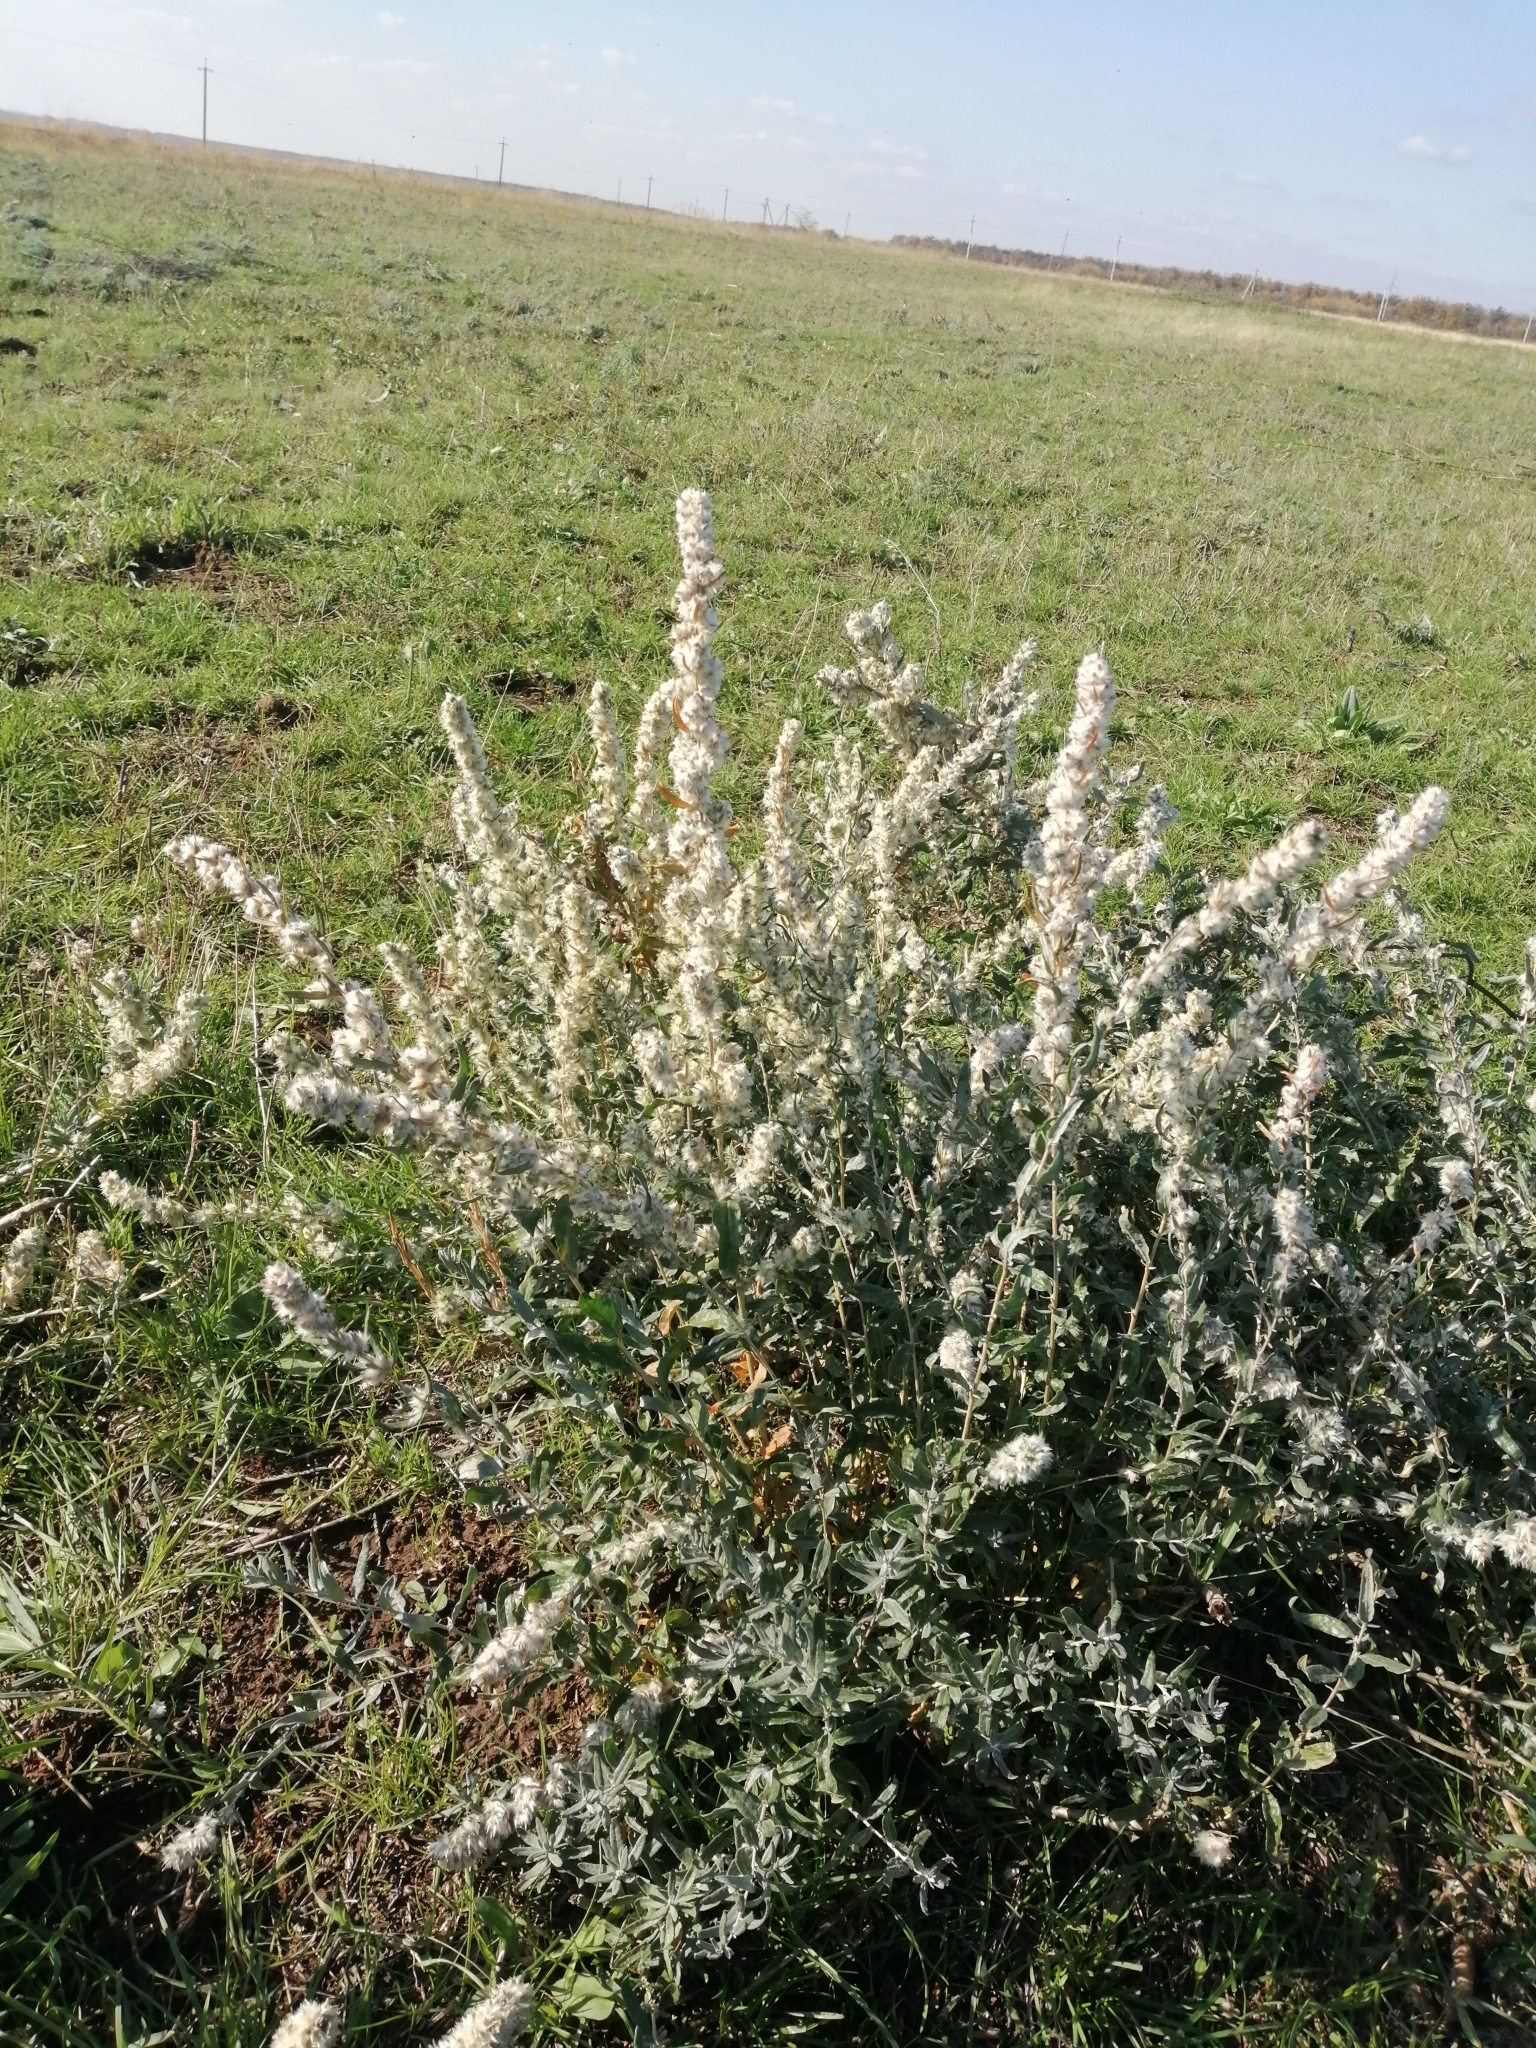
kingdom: Plantae
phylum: Tracheophyta
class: Magnoliopsida
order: Caryophyllales
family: Amaranthaceae
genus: Krascheninnikovia
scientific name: Krascheninnikovia ceratoides
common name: Pamirian winterfat
